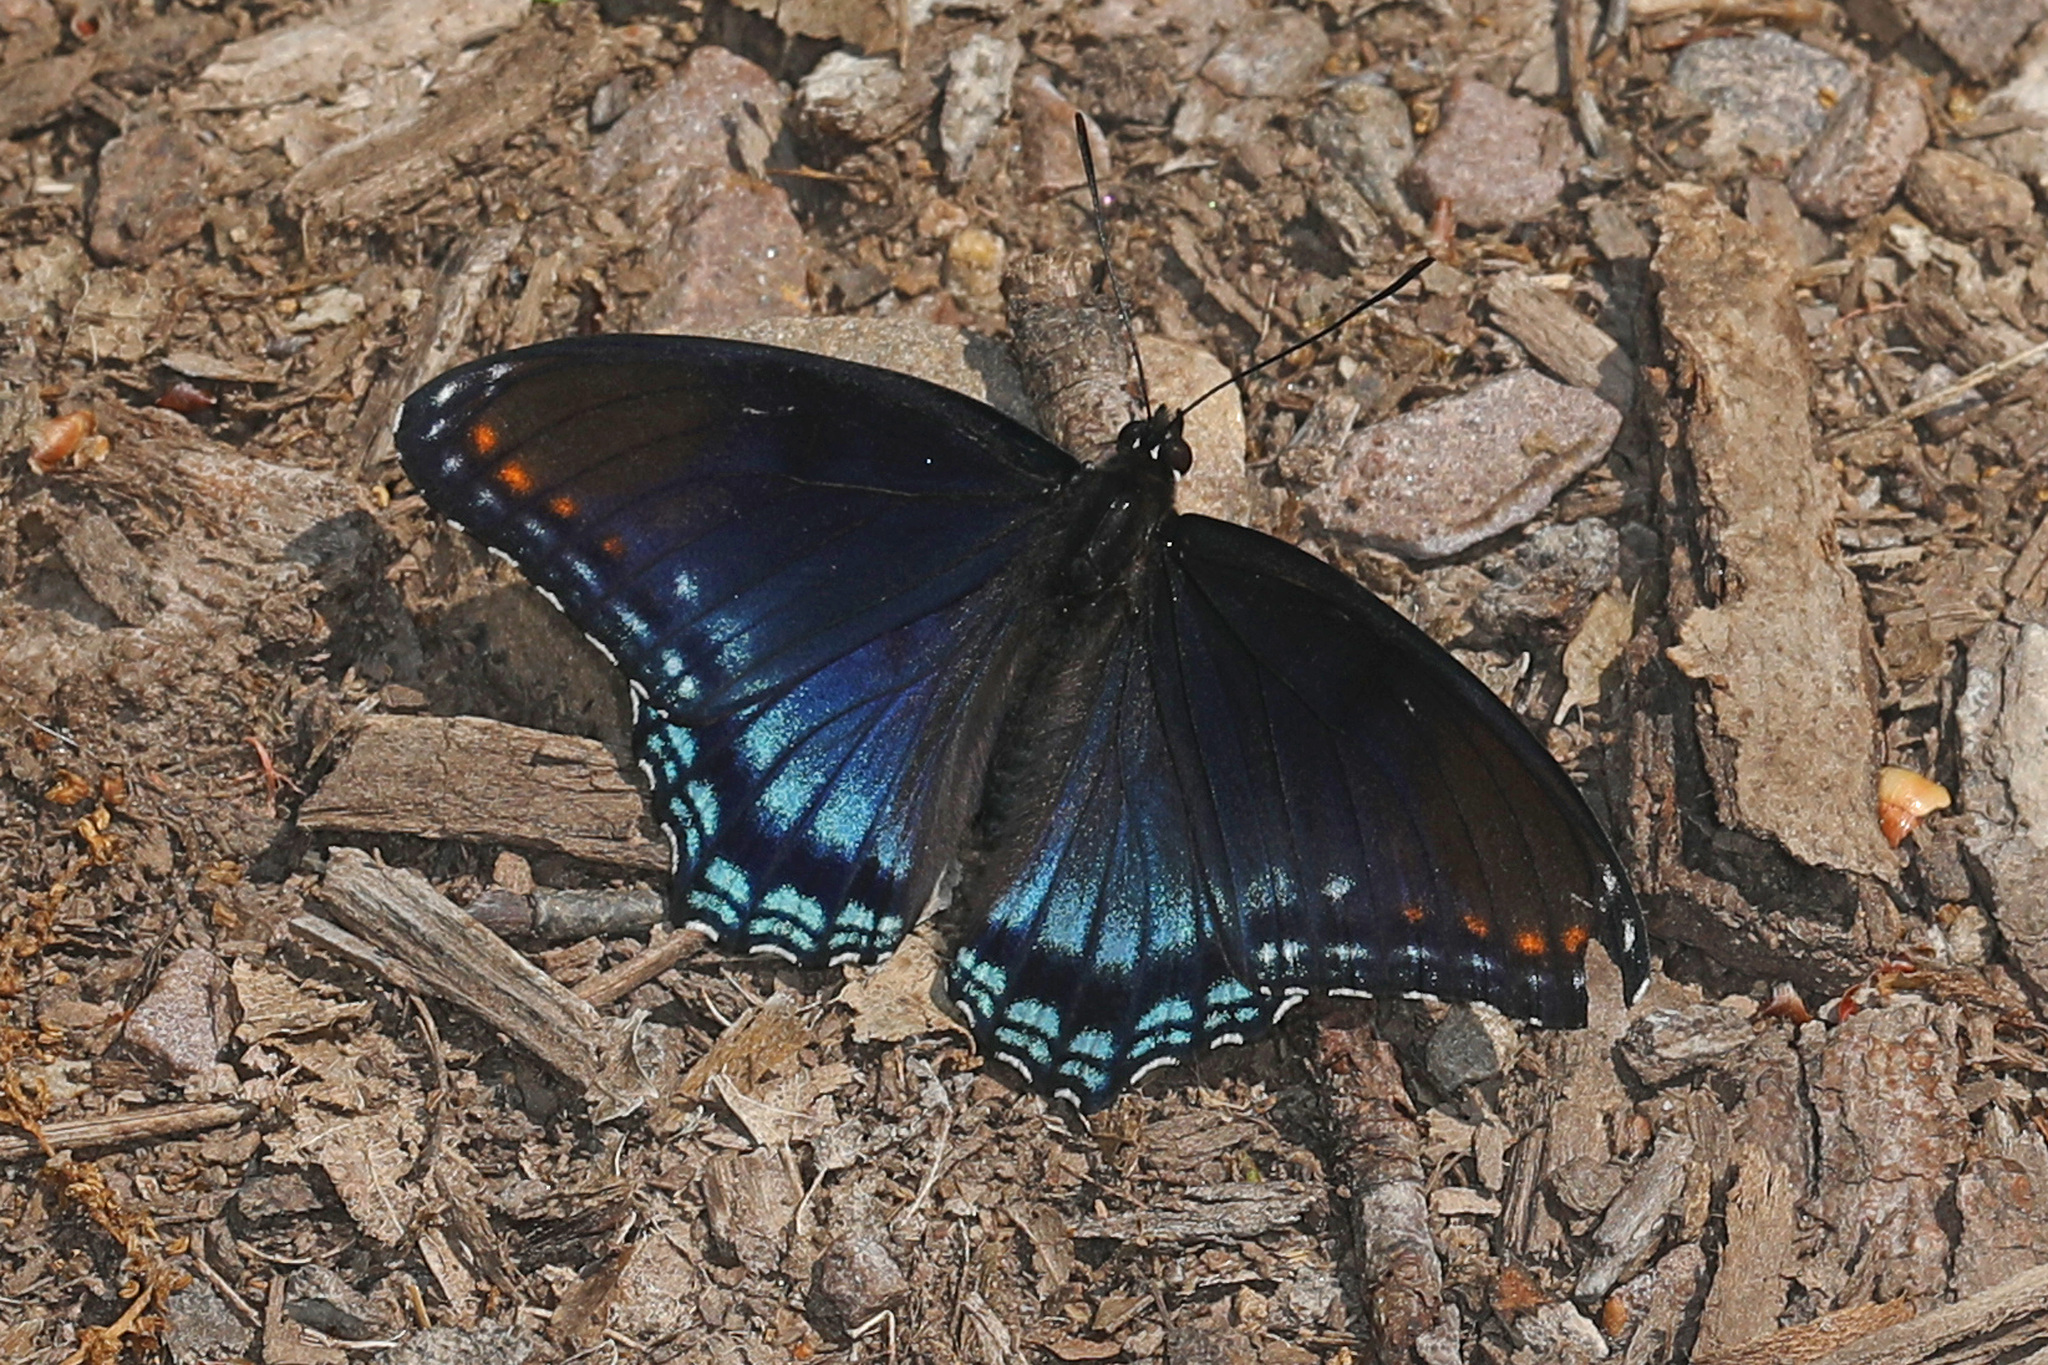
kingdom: Animalia
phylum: Arthropoda
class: Insecta
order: Lepidoptera
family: Nymphalidae
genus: Limenitis
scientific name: Limenitis astyanax
